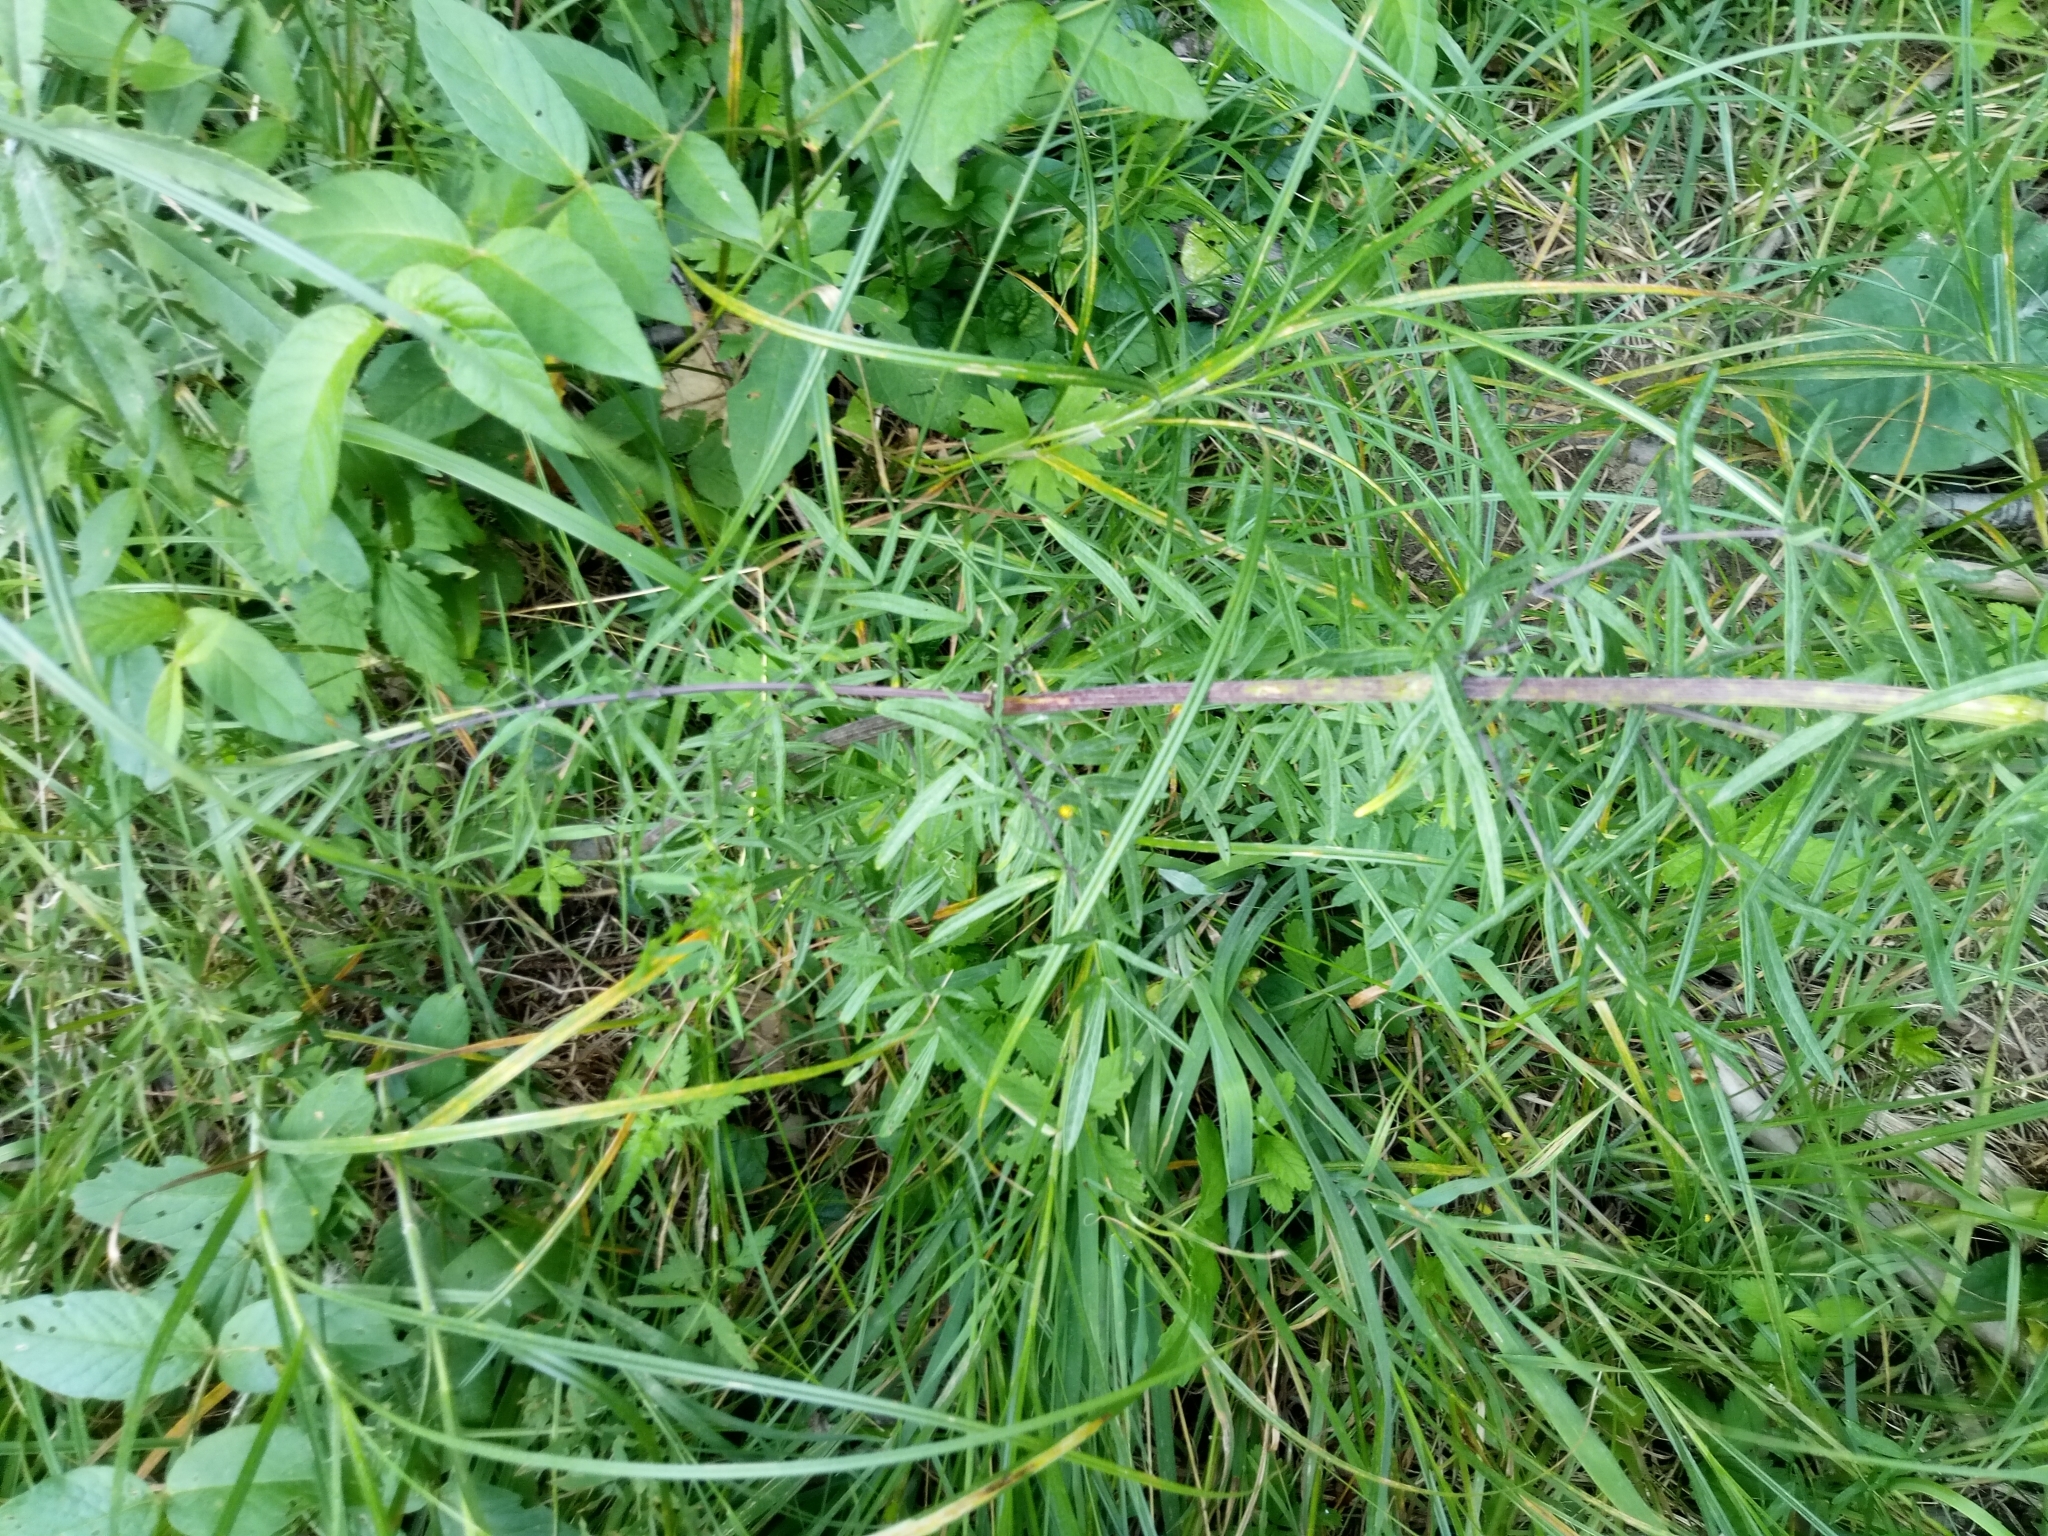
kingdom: Plantae
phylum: Tracheophyta
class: Magnoliopsida
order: Ranunculales
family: Ranunculaceae
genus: Thalictrum
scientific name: Thalictrum lucidum
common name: Shining meadow-rue
